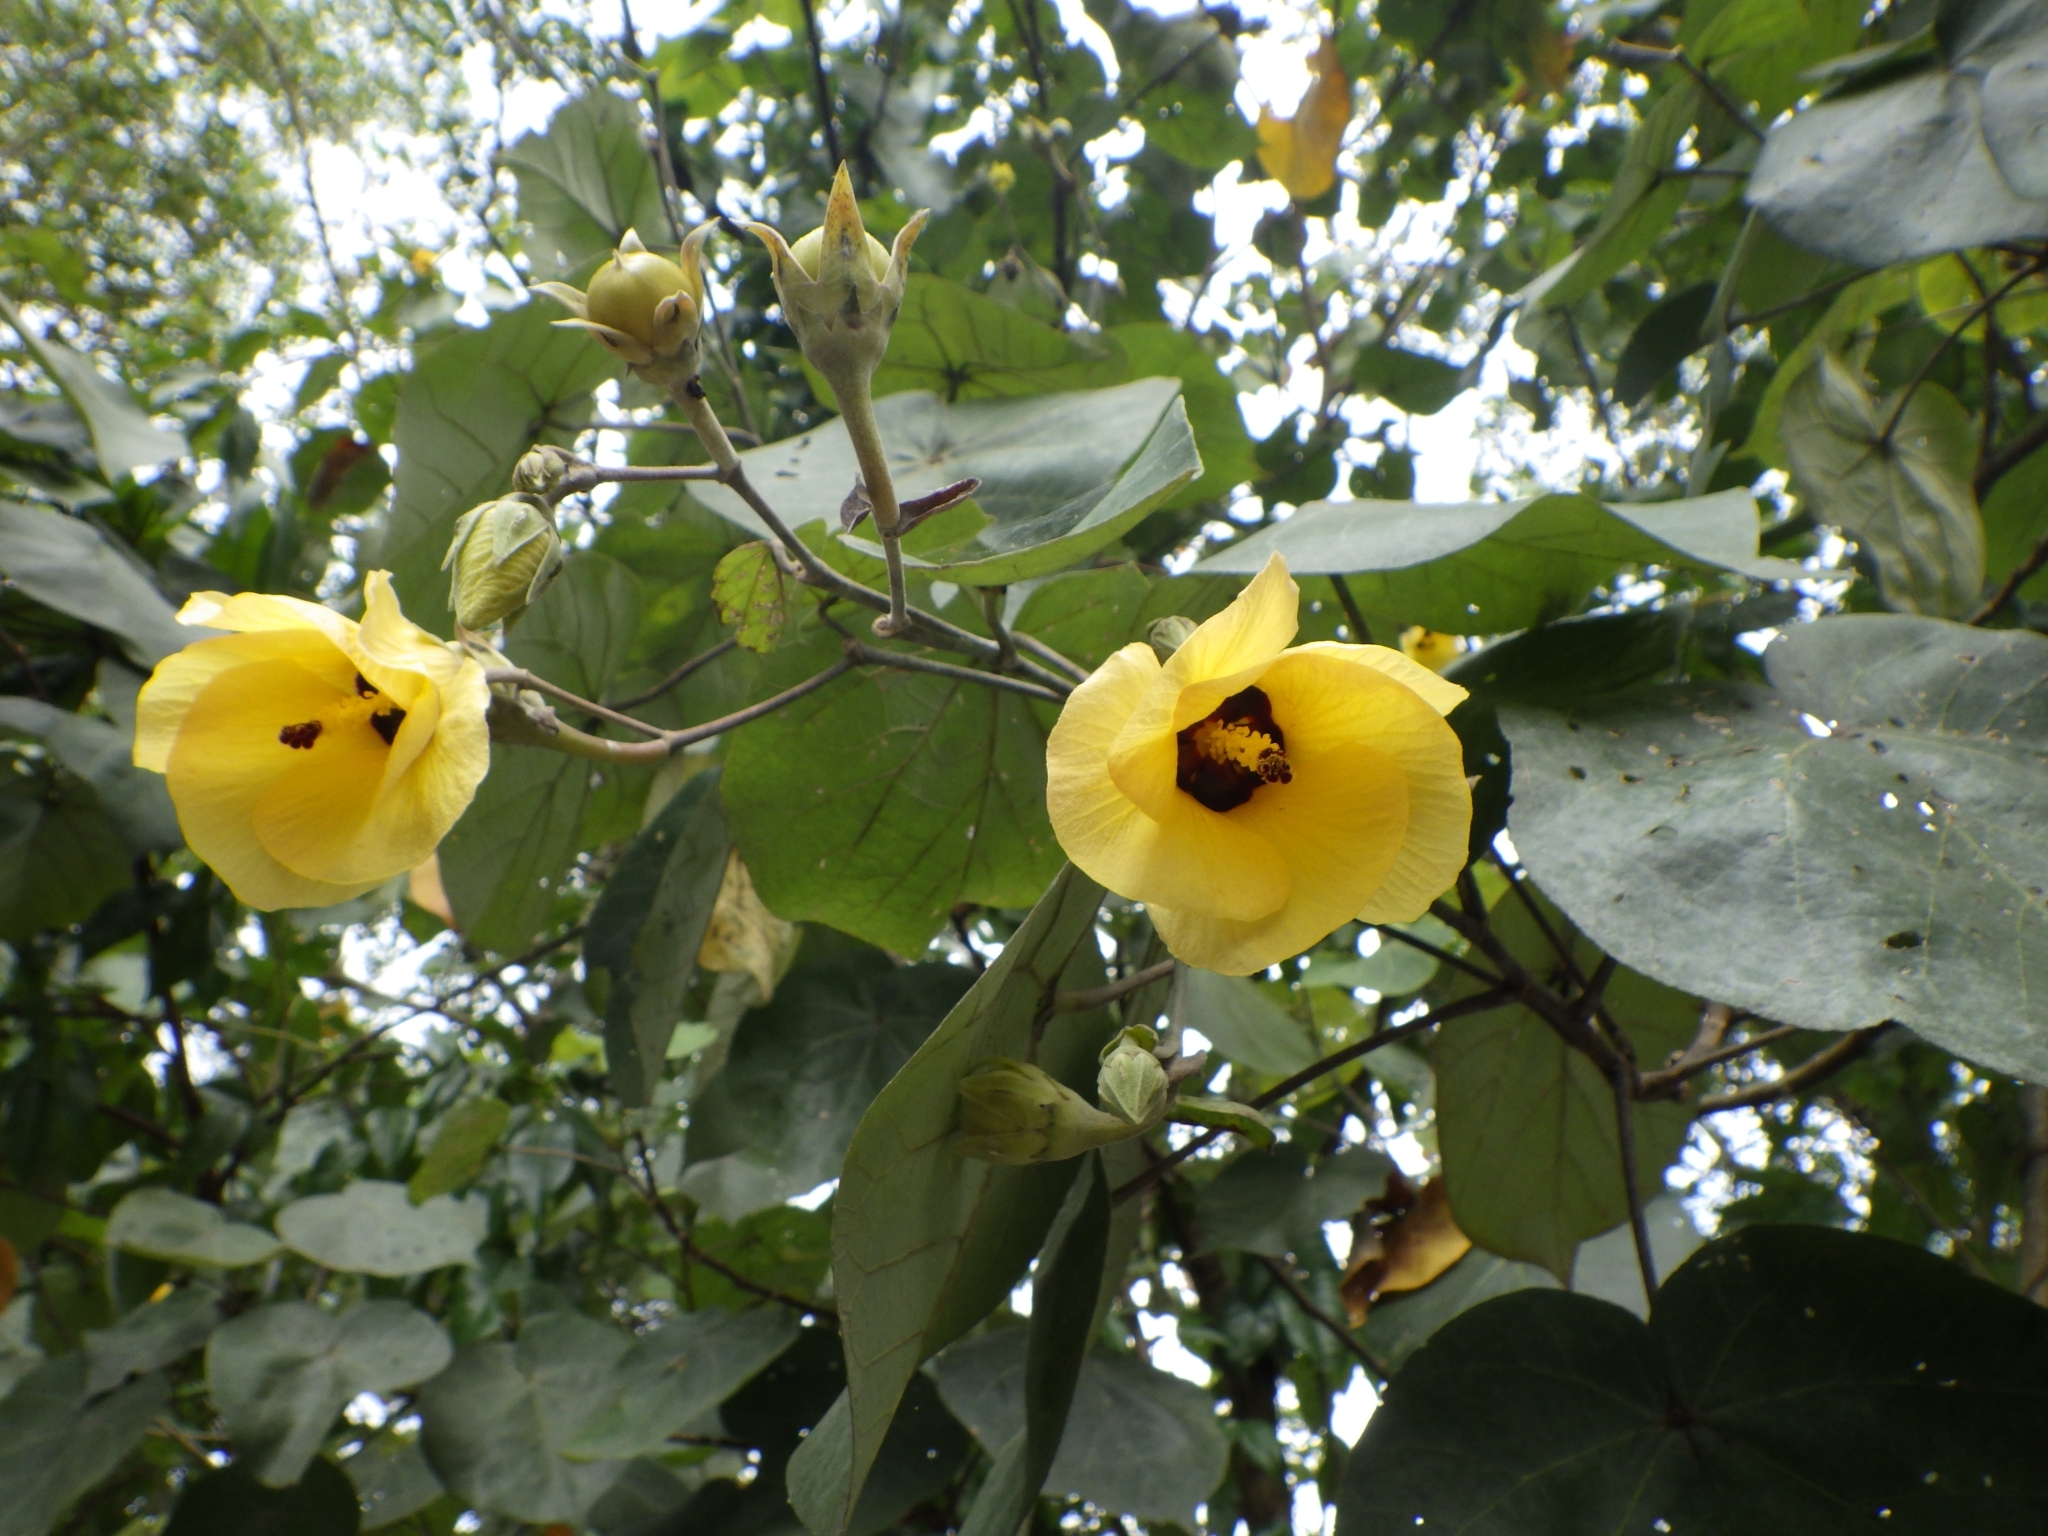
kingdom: Plantae
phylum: Tracheophyta
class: Magnoliopsida
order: Malvales
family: Malvaceae
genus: Talipariti
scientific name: Talipariti tiliaceum
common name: Sea hibiscus
